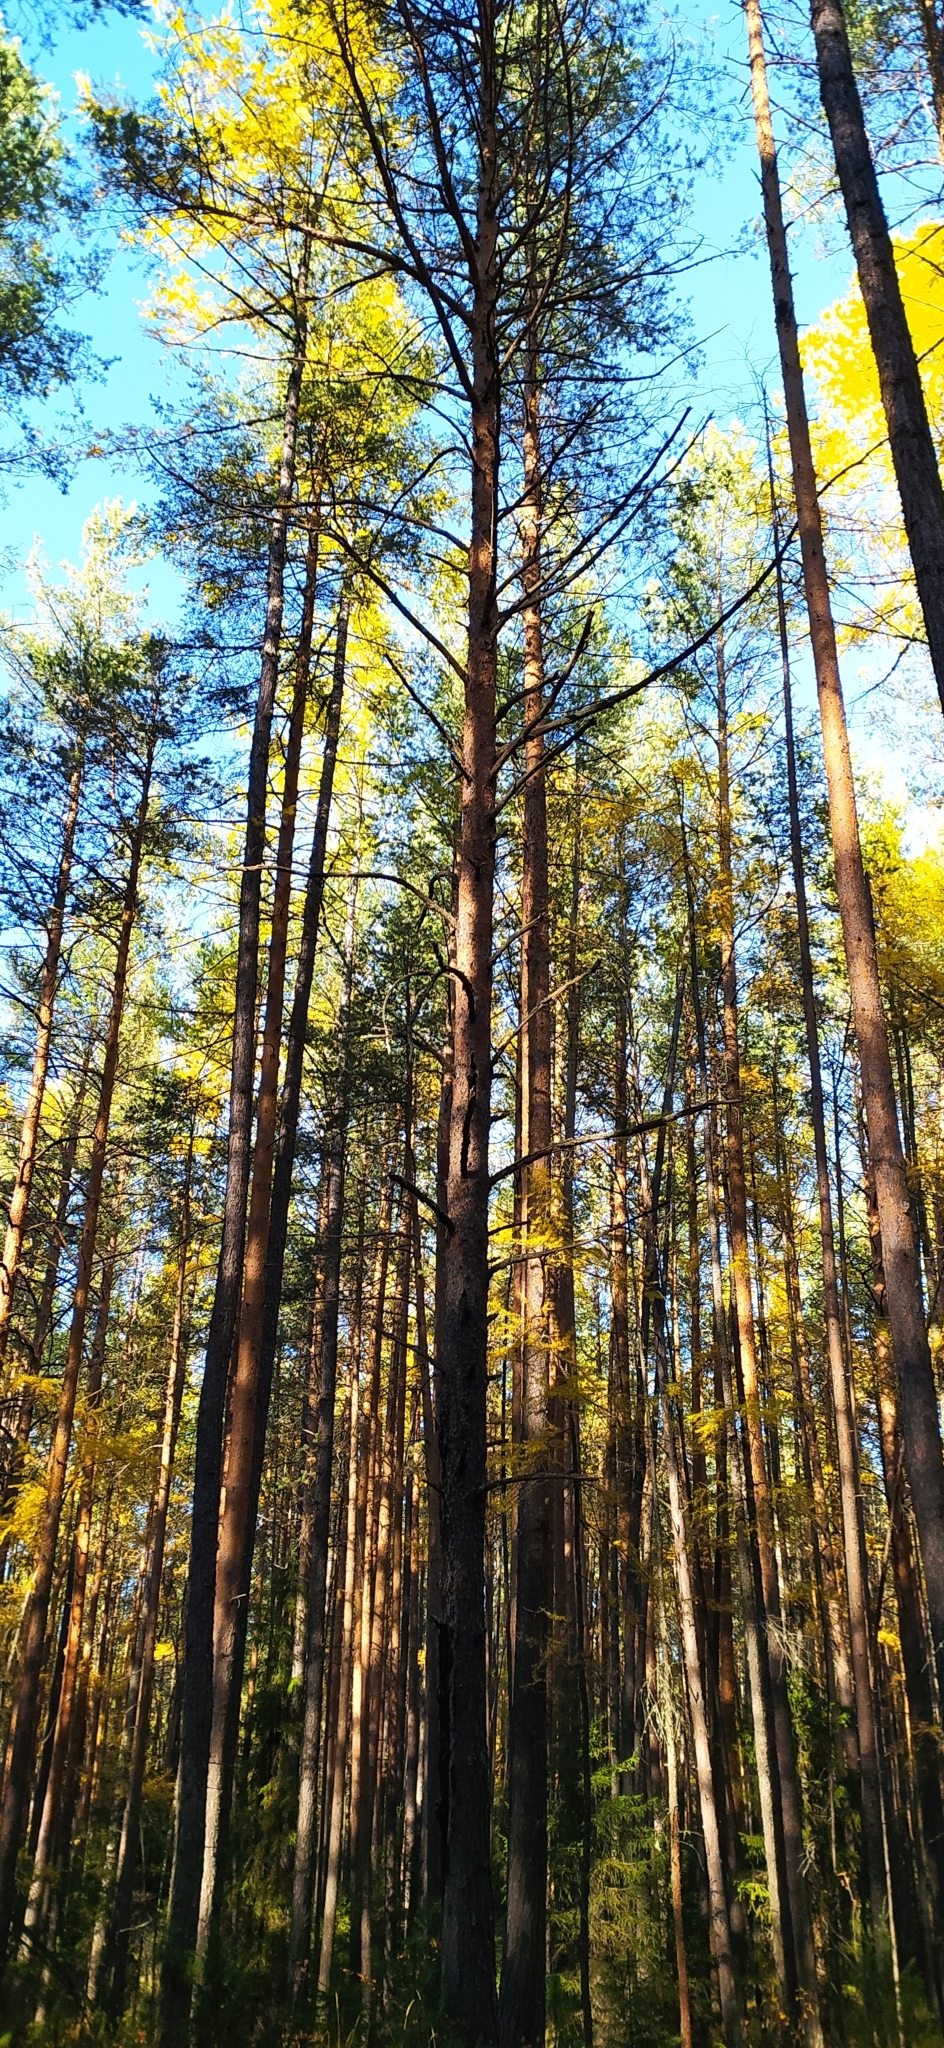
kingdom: Plantae
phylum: Tracheophyta
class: Pinopsida
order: Pinales
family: Pinaceae
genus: Pinus
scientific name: Pinus sylvestris
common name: Scots pine
